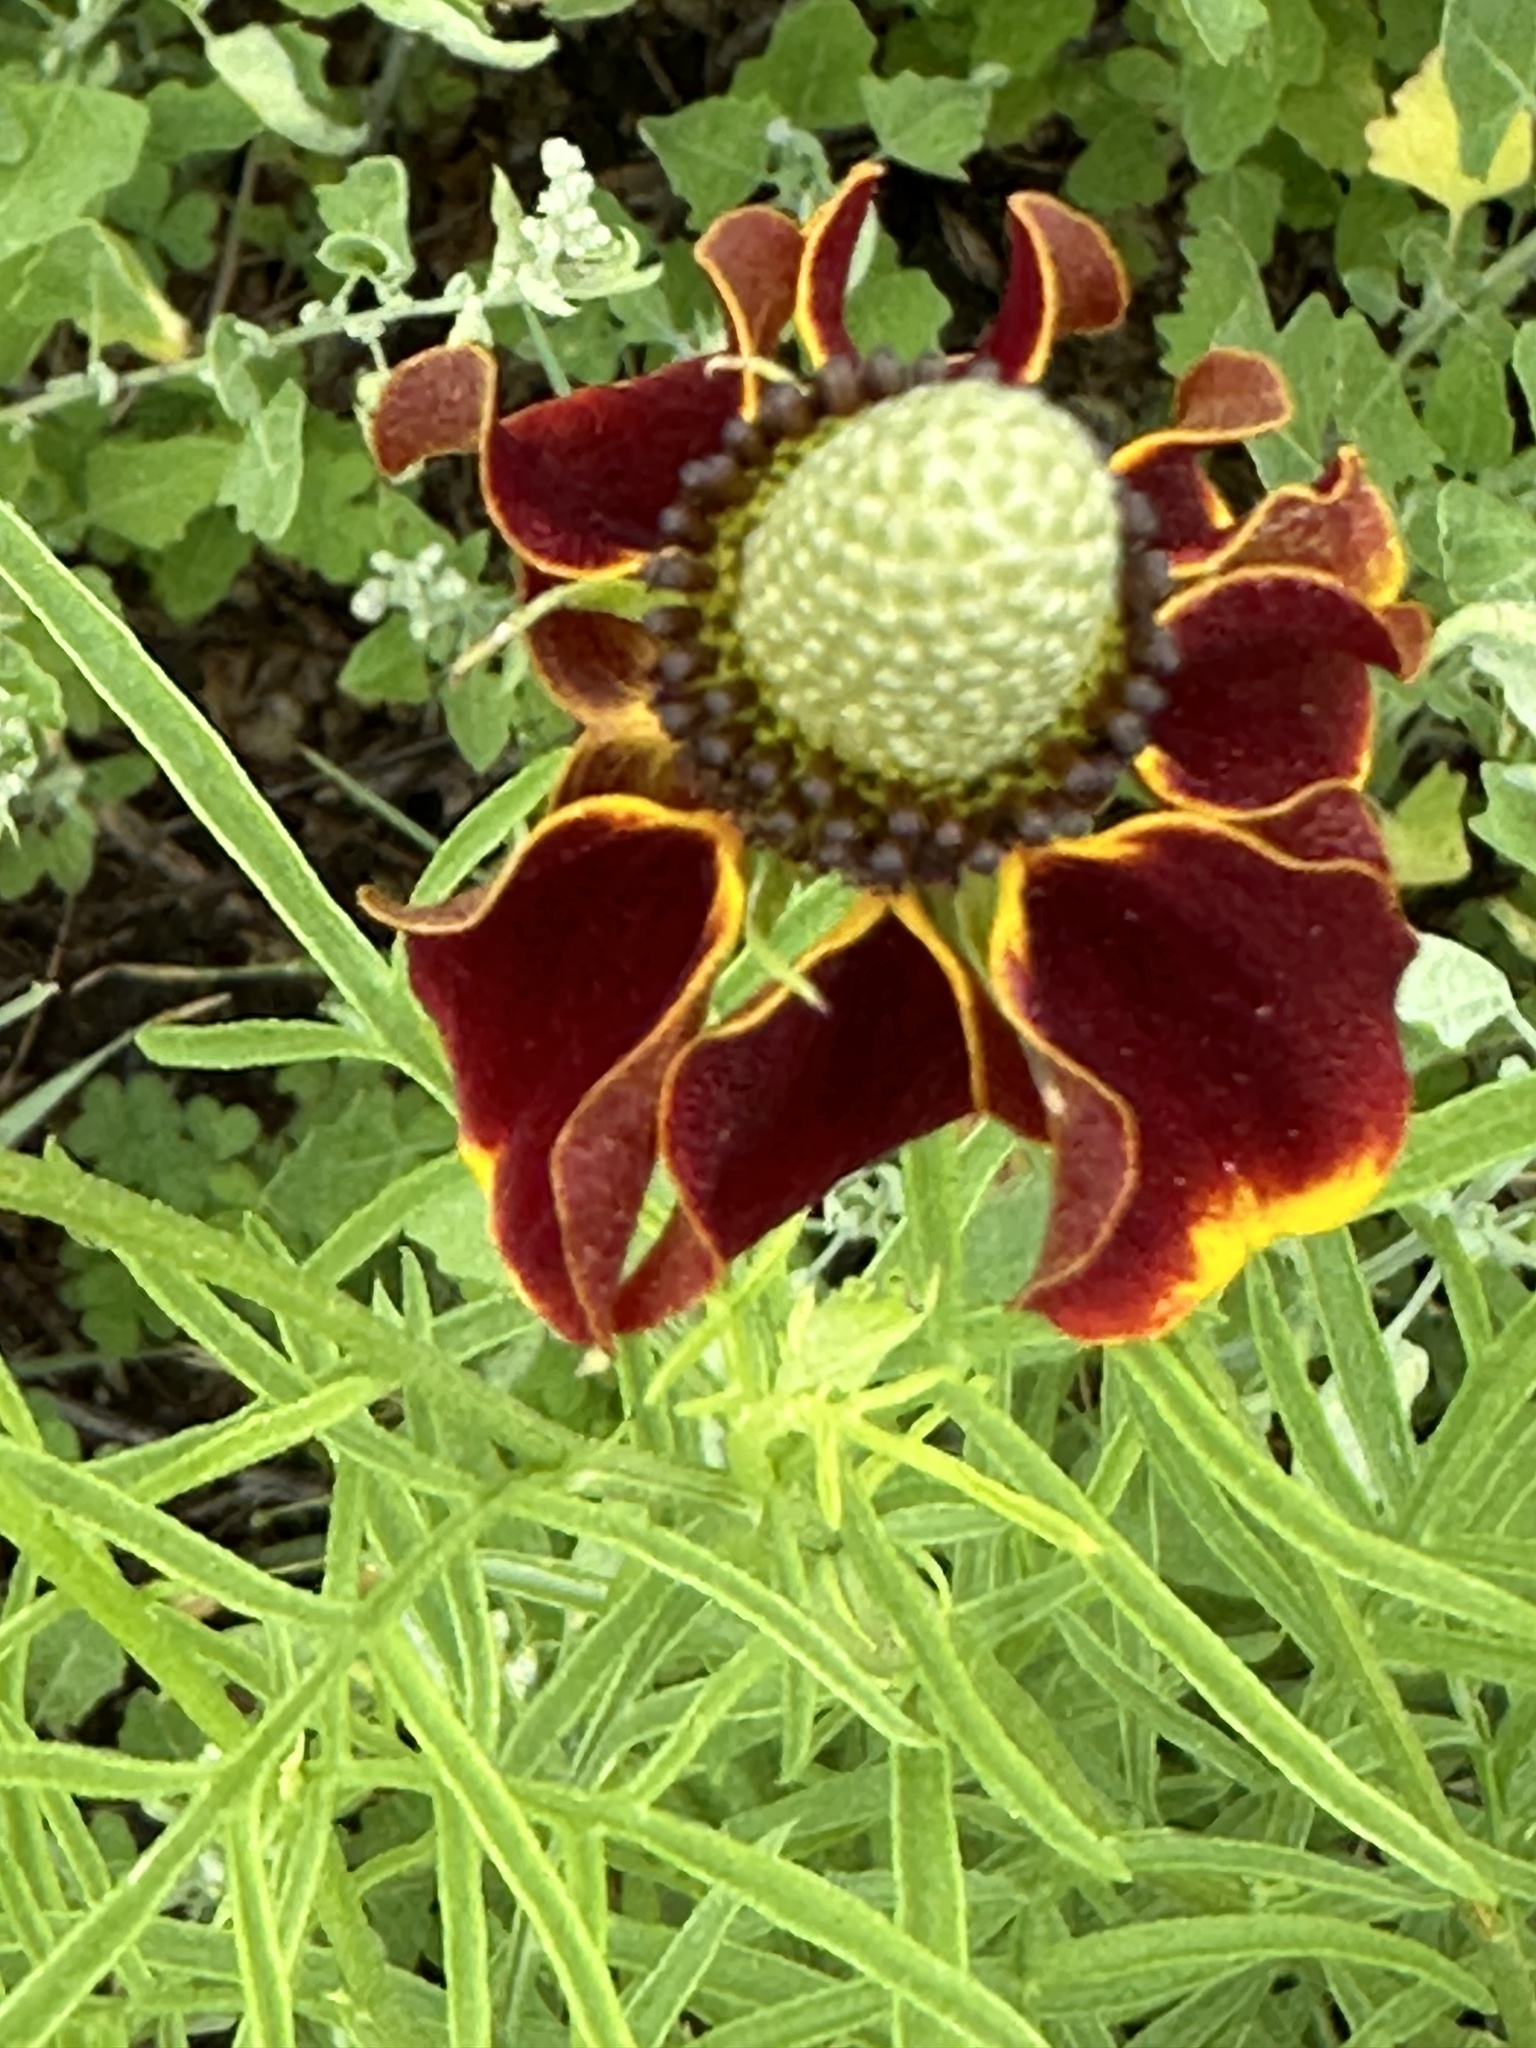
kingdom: Plantae
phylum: Tracheophyta
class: Magnoliopsida
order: Asterales
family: Asteraceae
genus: Ratibida
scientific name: Ratibida columnifera
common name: Prairie coneflower
